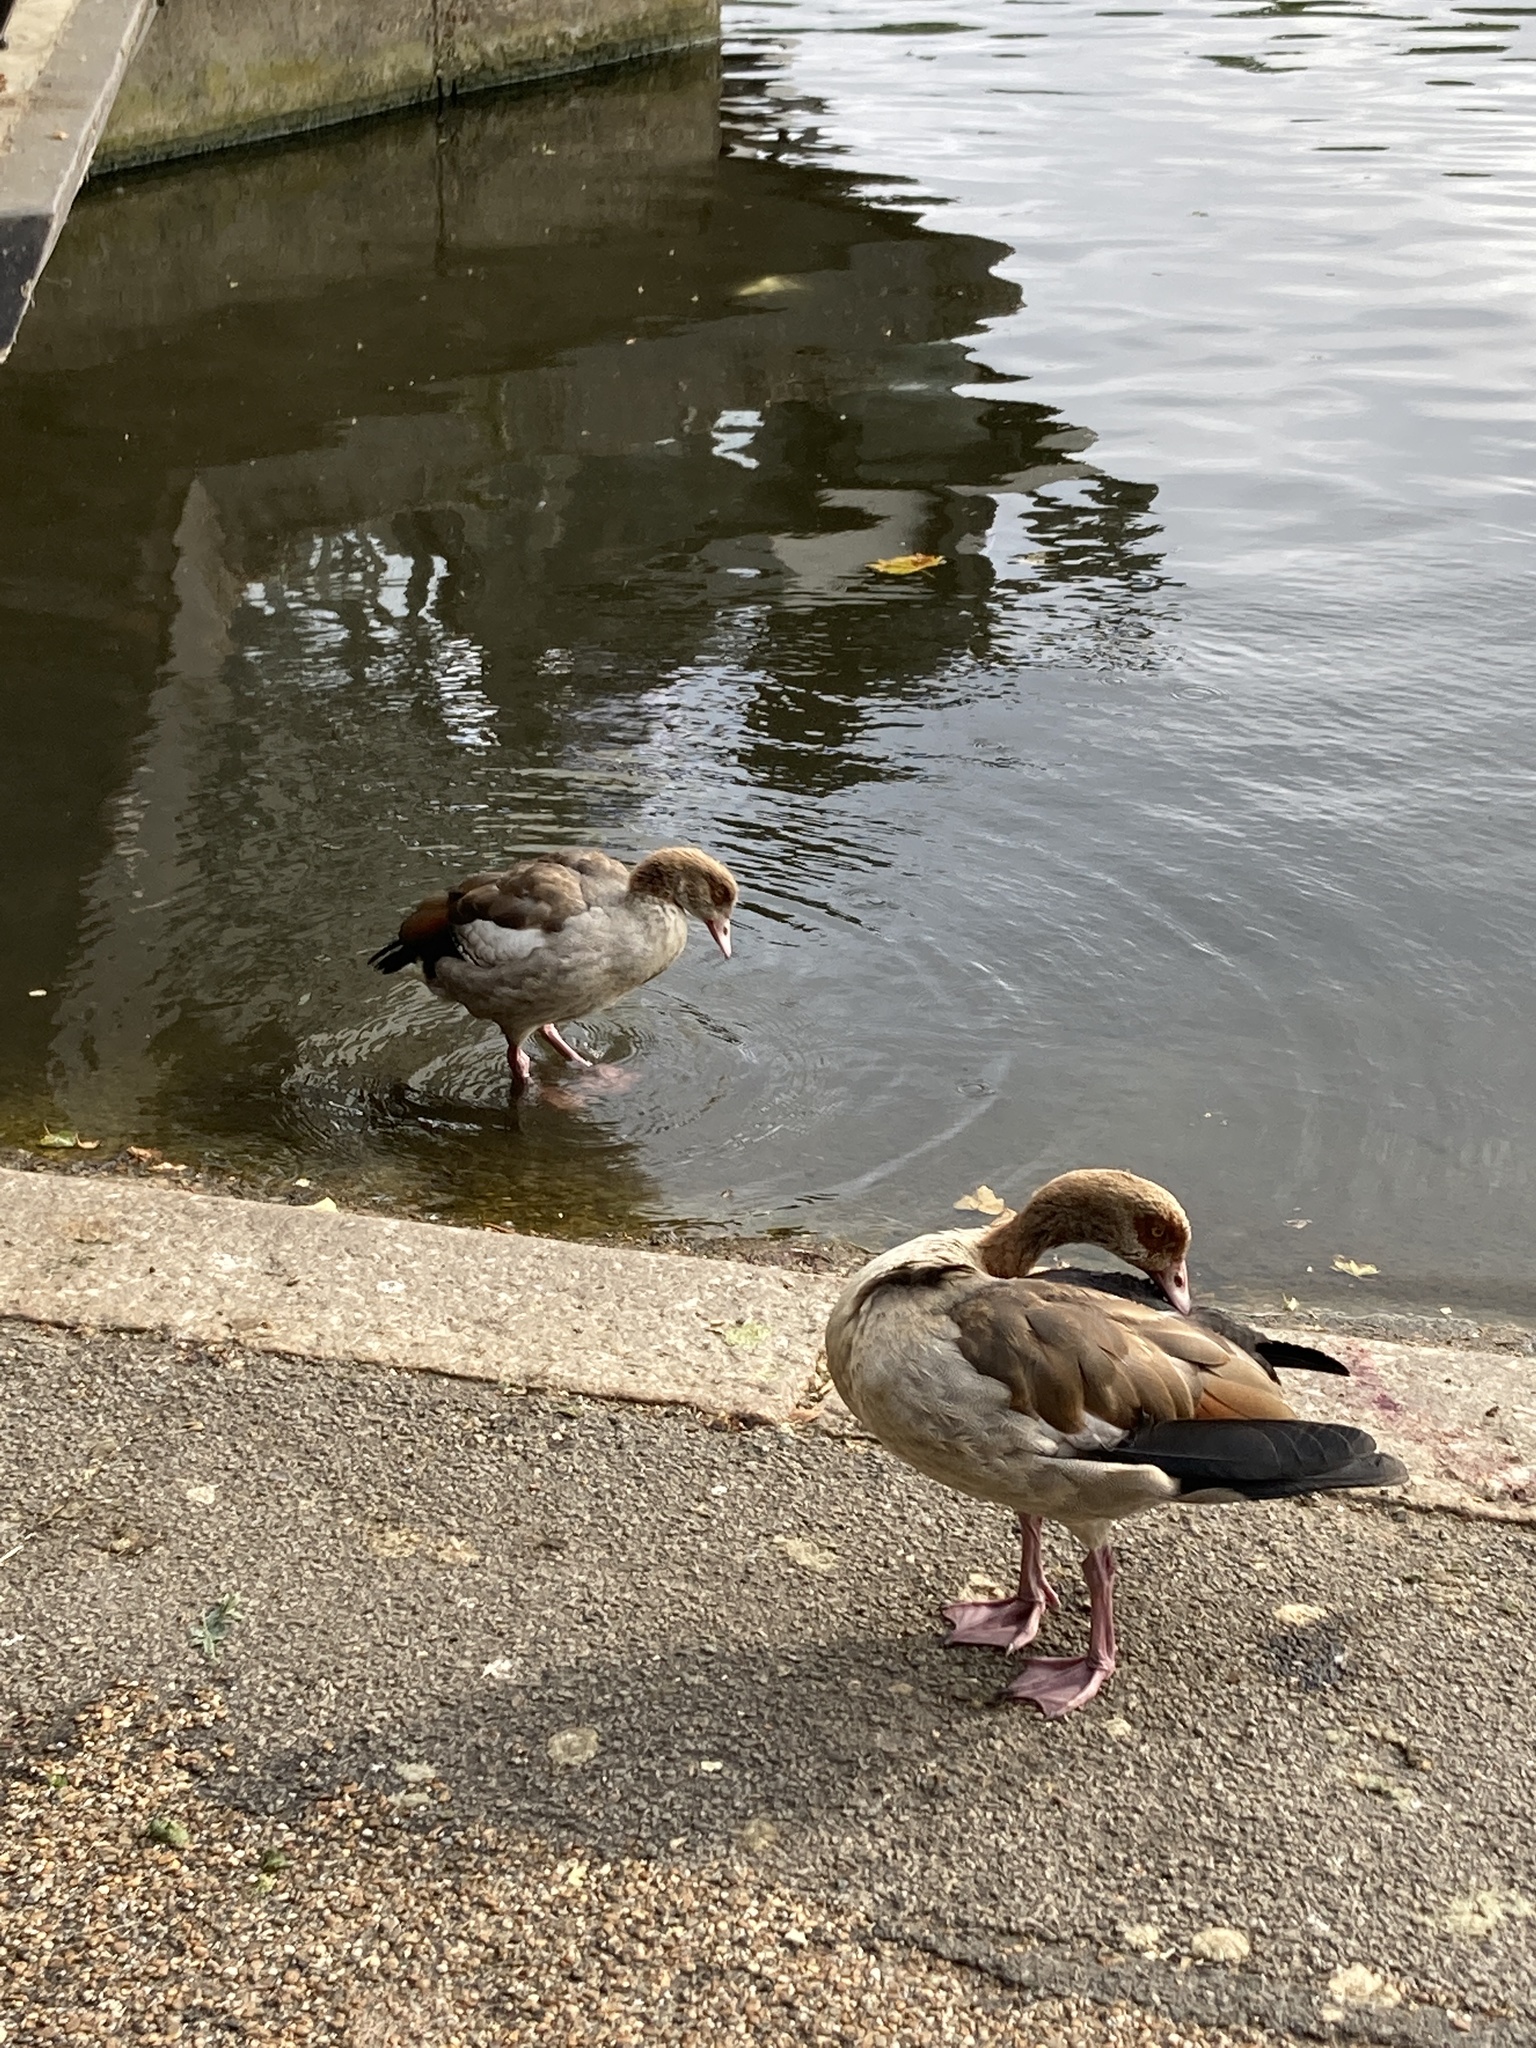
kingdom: Animalia
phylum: Chordata
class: Aves
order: Anseriformes
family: Anatidae
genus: Alopochen
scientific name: Alopochen aegyptiaca
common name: Egyptian goose
